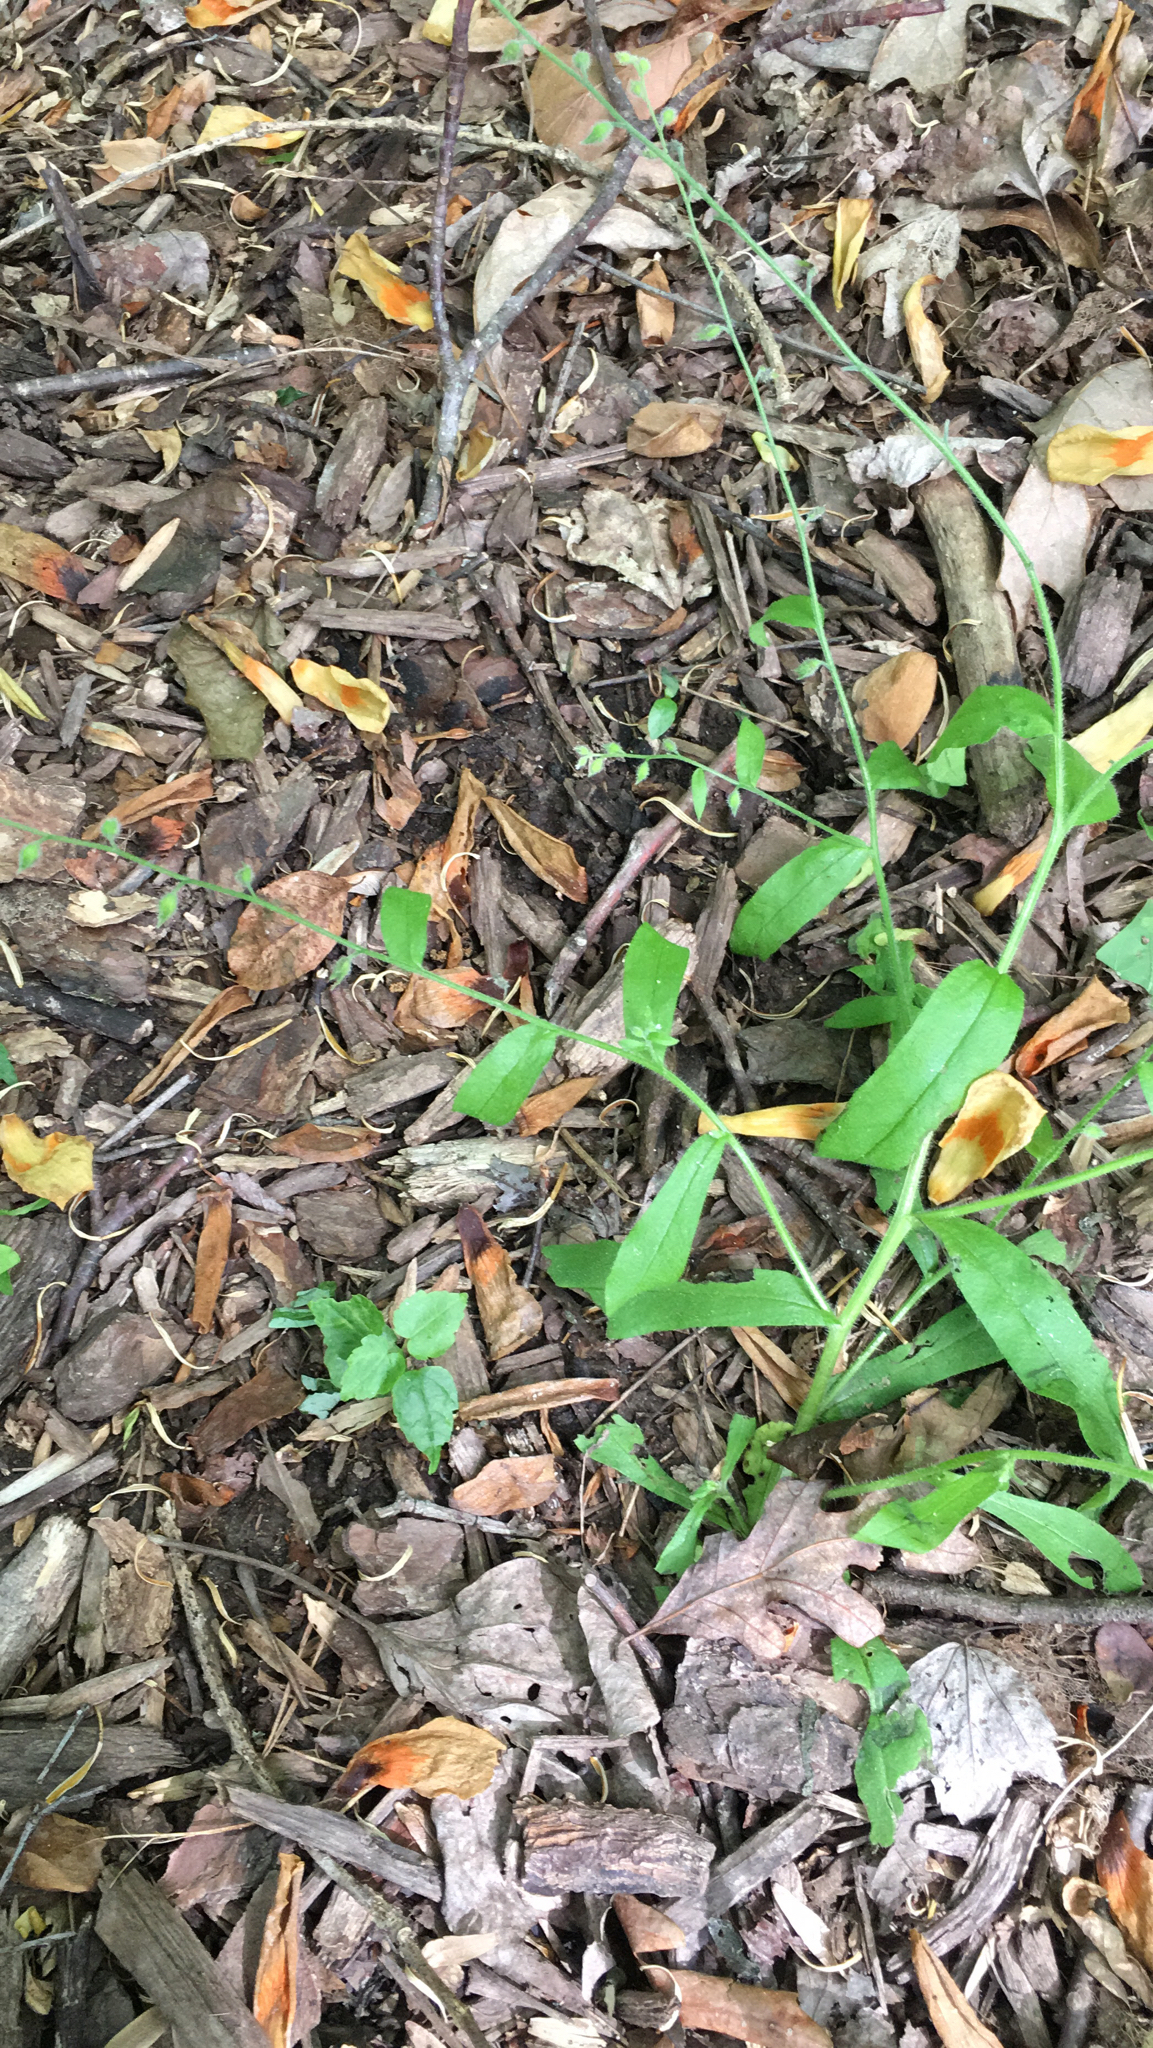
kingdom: Plantae
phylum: Tracheophyta
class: Magnoliopsida
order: Boraginales
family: Boraginaceae
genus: Myosotis
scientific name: Myosotis macrosperma
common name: Large-seed forget-me-not
